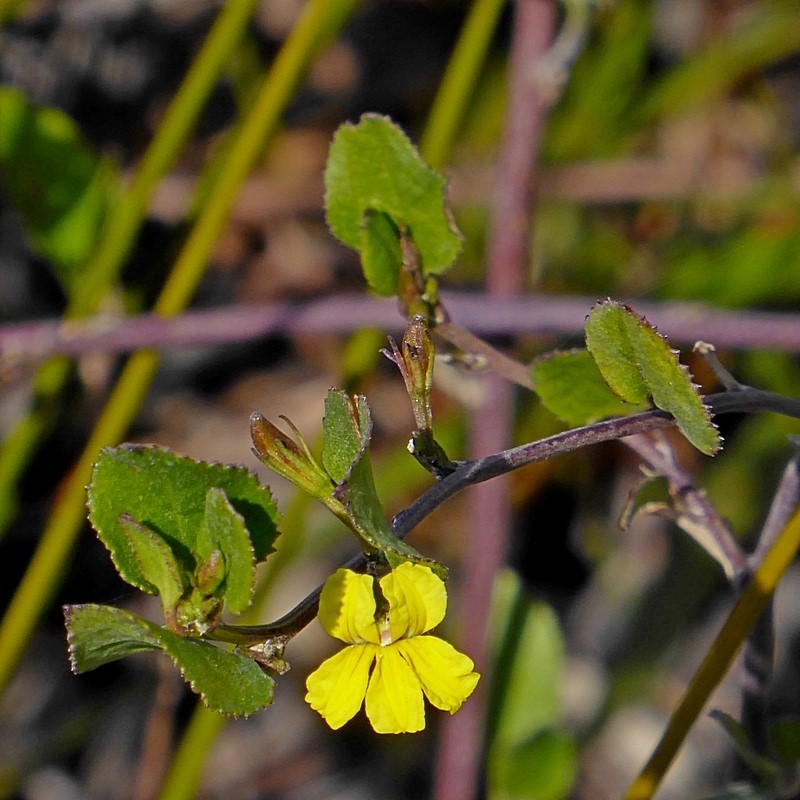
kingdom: Plantae
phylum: Tracheophyta
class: Magnoliopsida
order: Asterales
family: Goodeniaceae
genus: Goodenia
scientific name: Goodenia ovata
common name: Hop goodenia
